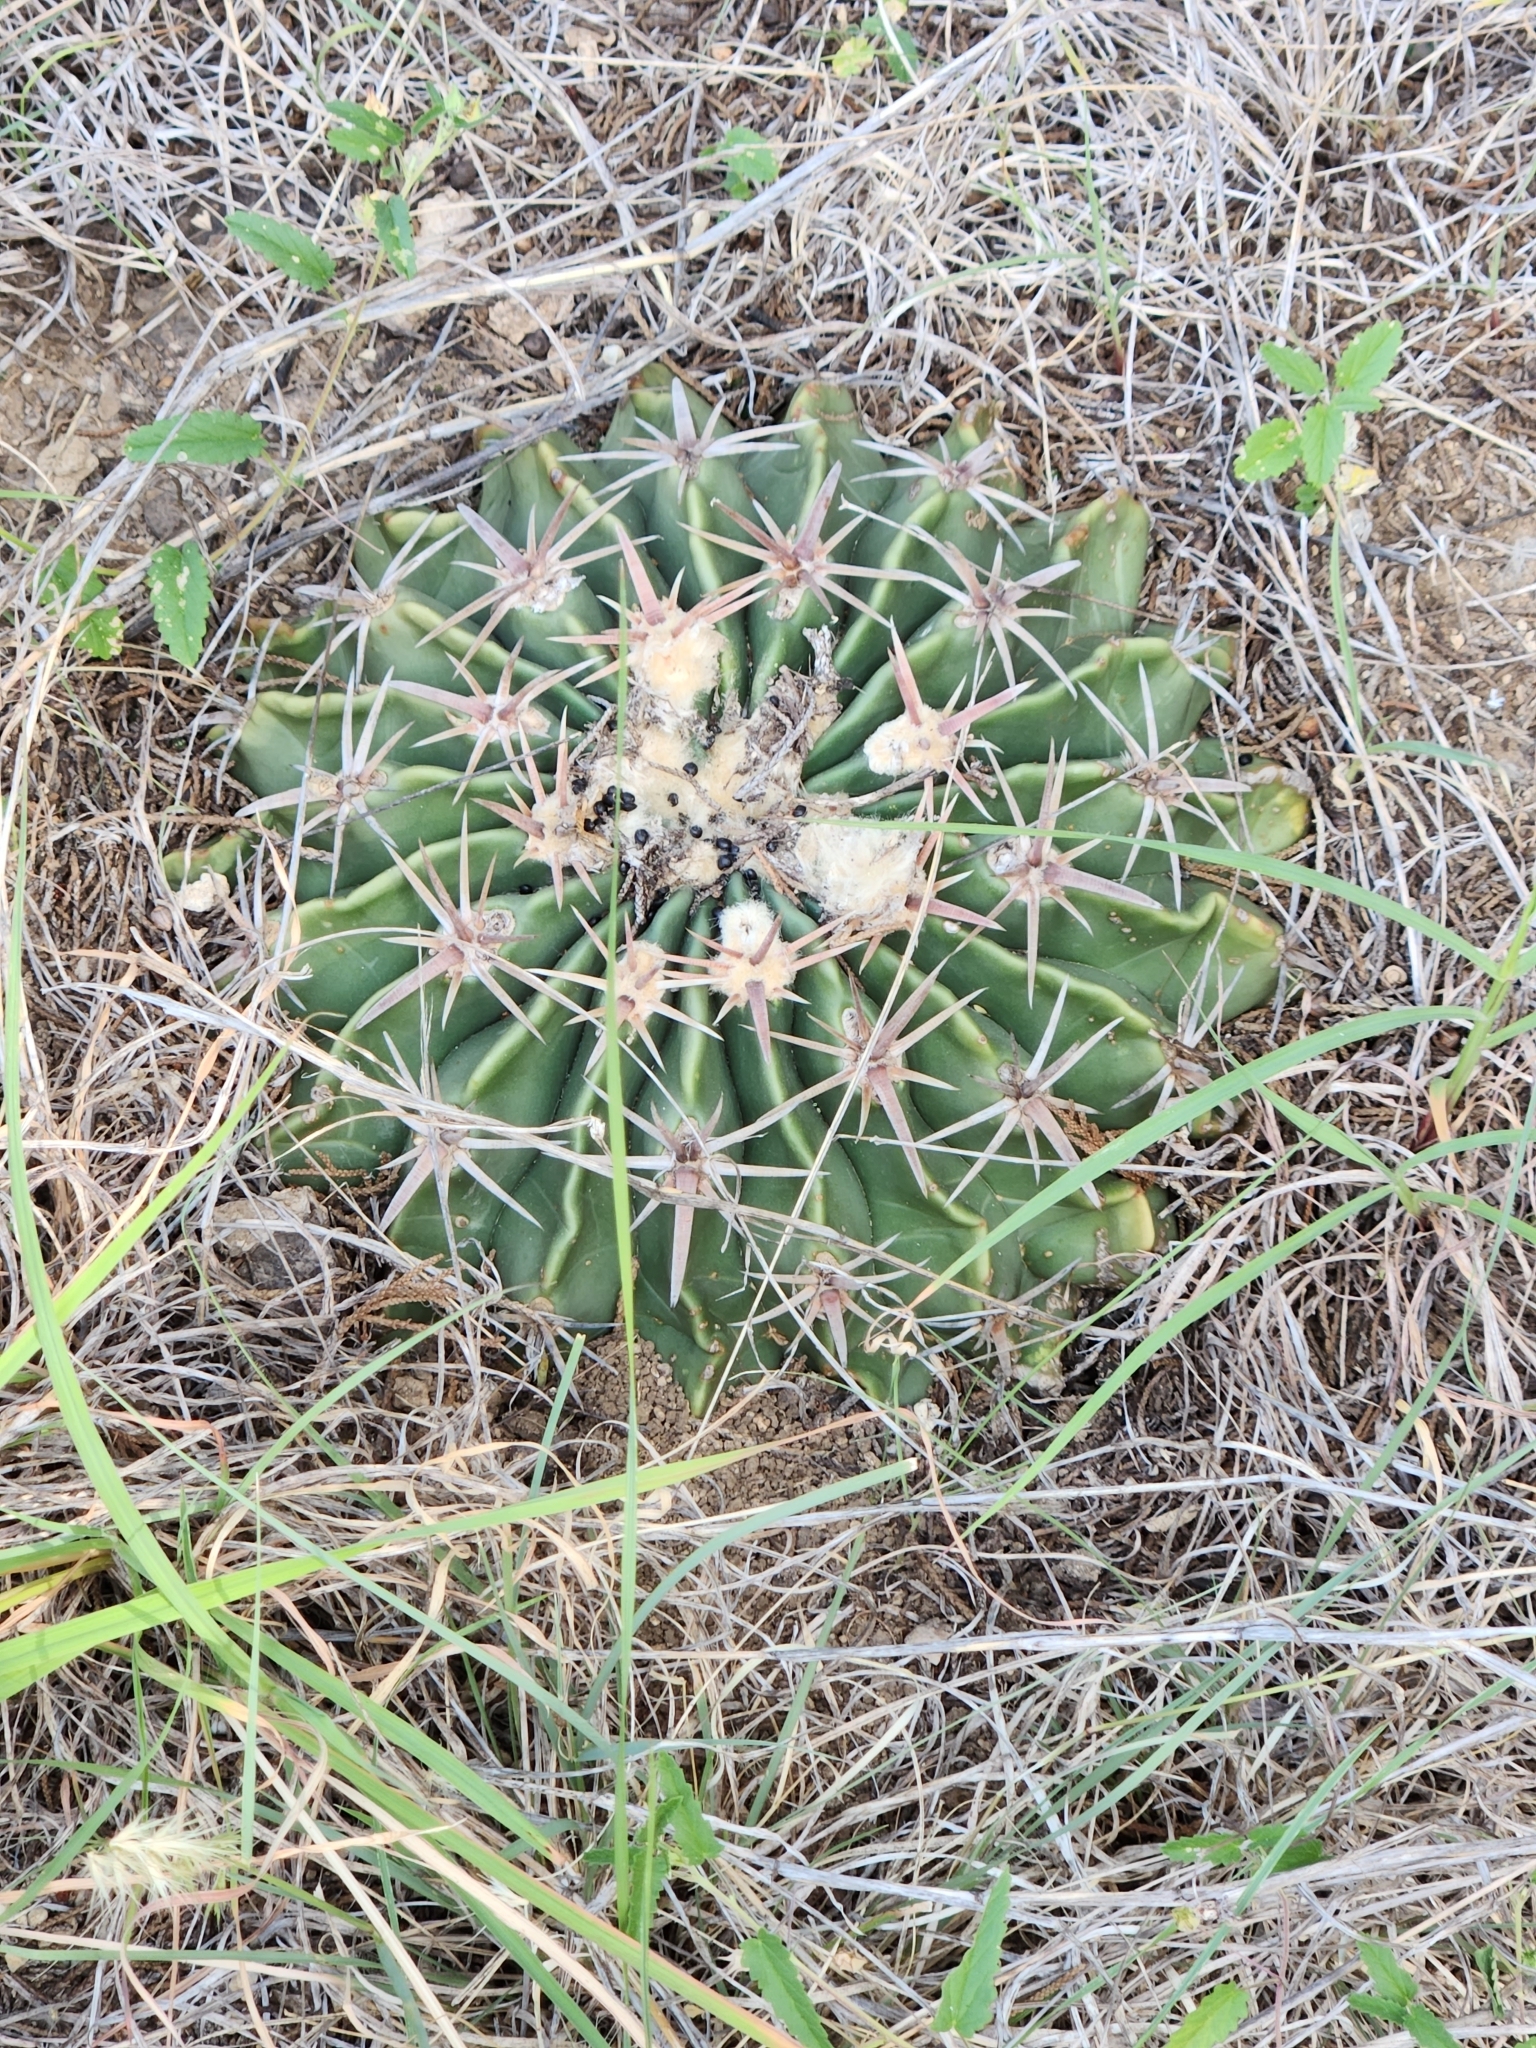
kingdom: Plantae
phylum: Tracheophyta
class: Magnoliopsida
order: Caryophyllales
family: Cactaceae
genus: Echinocactus
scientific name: Echinocactus texensis
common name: Devil's pincushion
